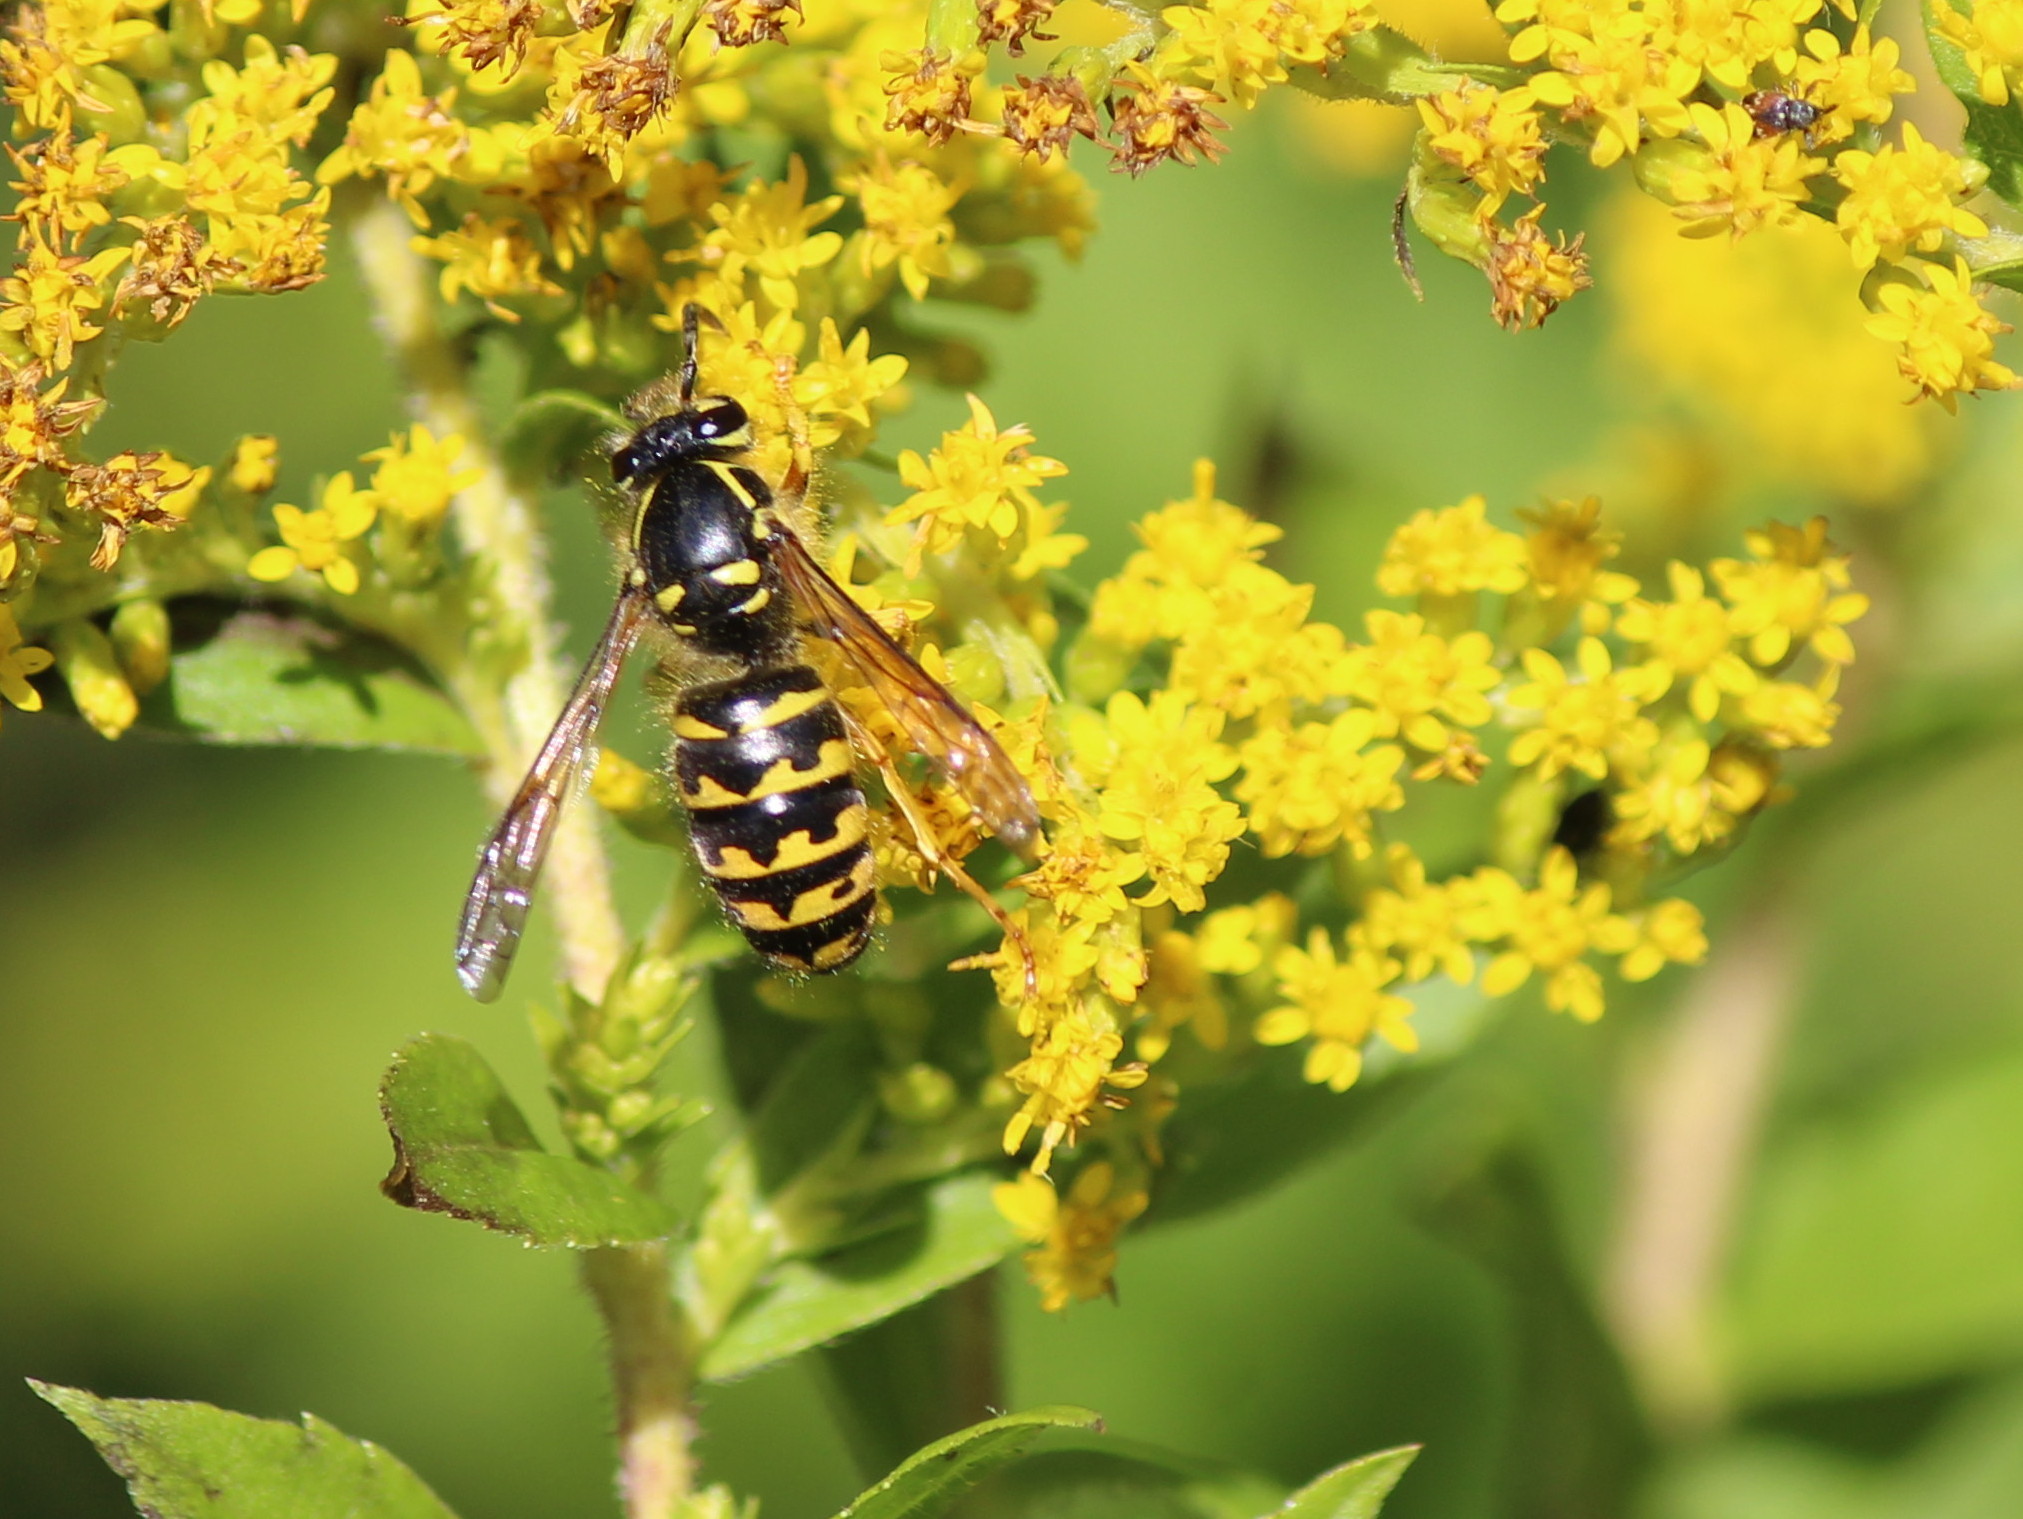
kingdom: Animalia
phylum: Arthropoda
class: Insecta
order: Hymenoptera
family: Vespidae
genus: Dolichovespula
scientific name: Dolichovespula arenaria
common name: Aerial yellowjacket
